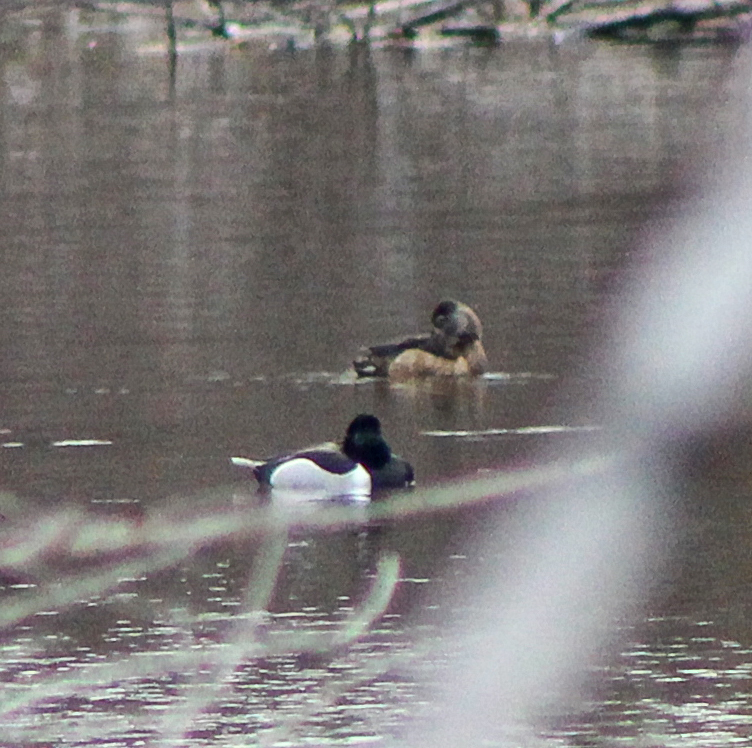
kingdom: Animalia
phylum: Chordata
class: Aves
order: Anseriformes
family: Anatidae
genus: Aythya
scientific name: Aythya collaris
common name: Ring-necked duck
